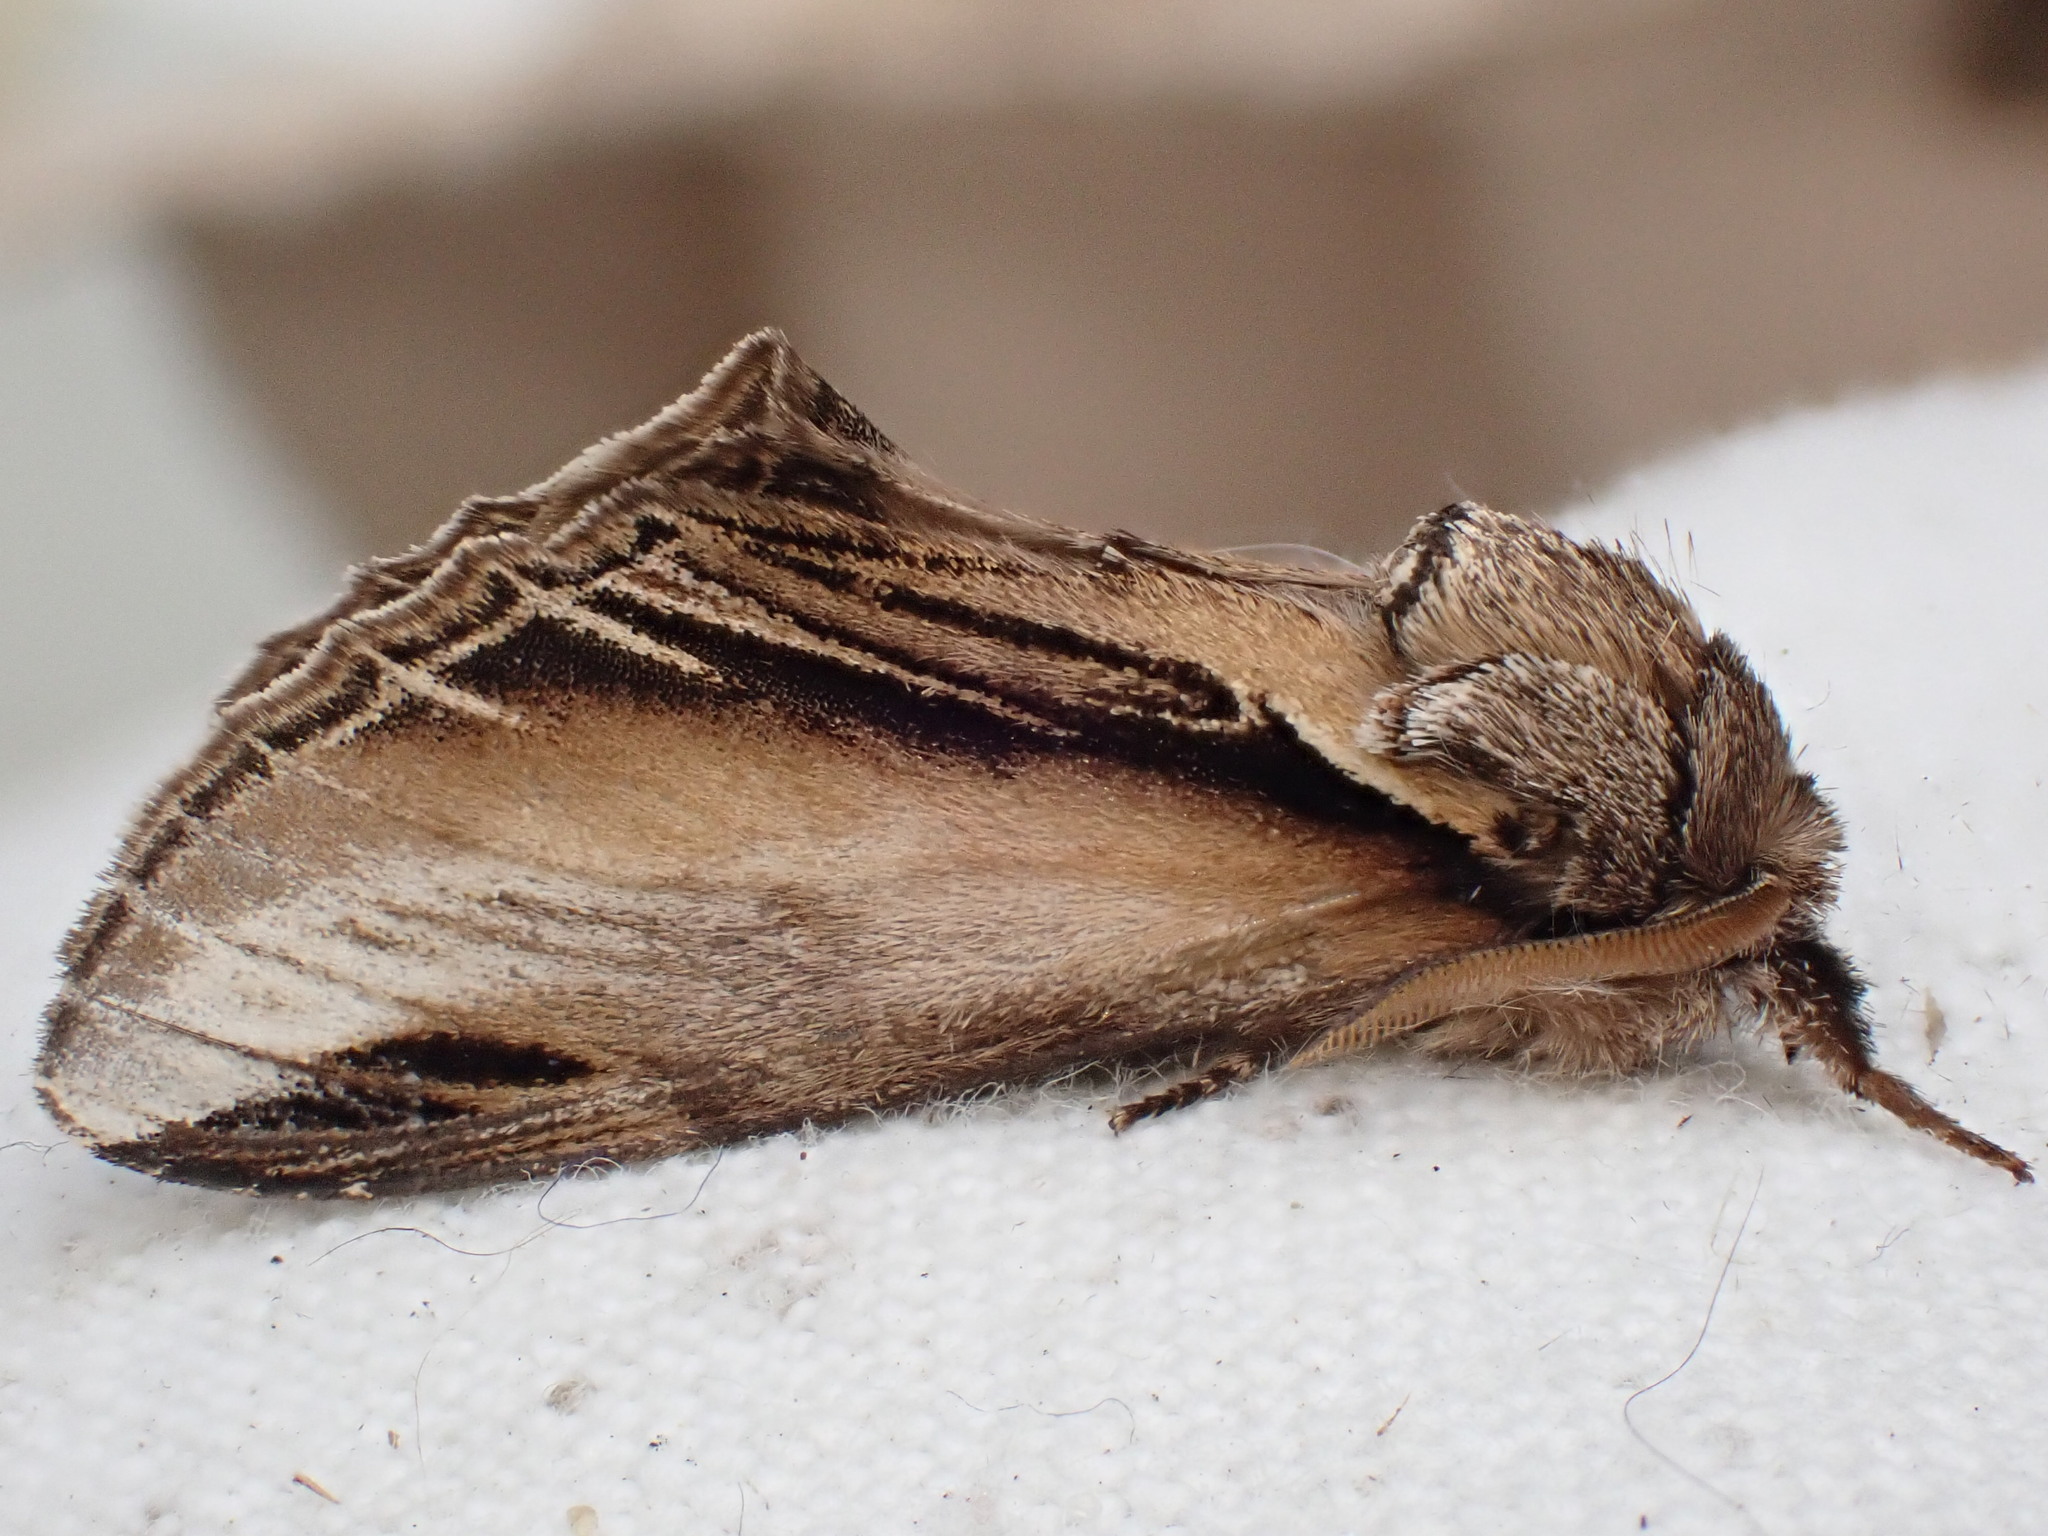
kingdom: Animalia
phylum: Arthropoda
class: Insecta
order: Lepidoptera
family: Notodontidae
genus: Pheosia
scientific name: Pheosia tremula
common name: Swallow prominent
